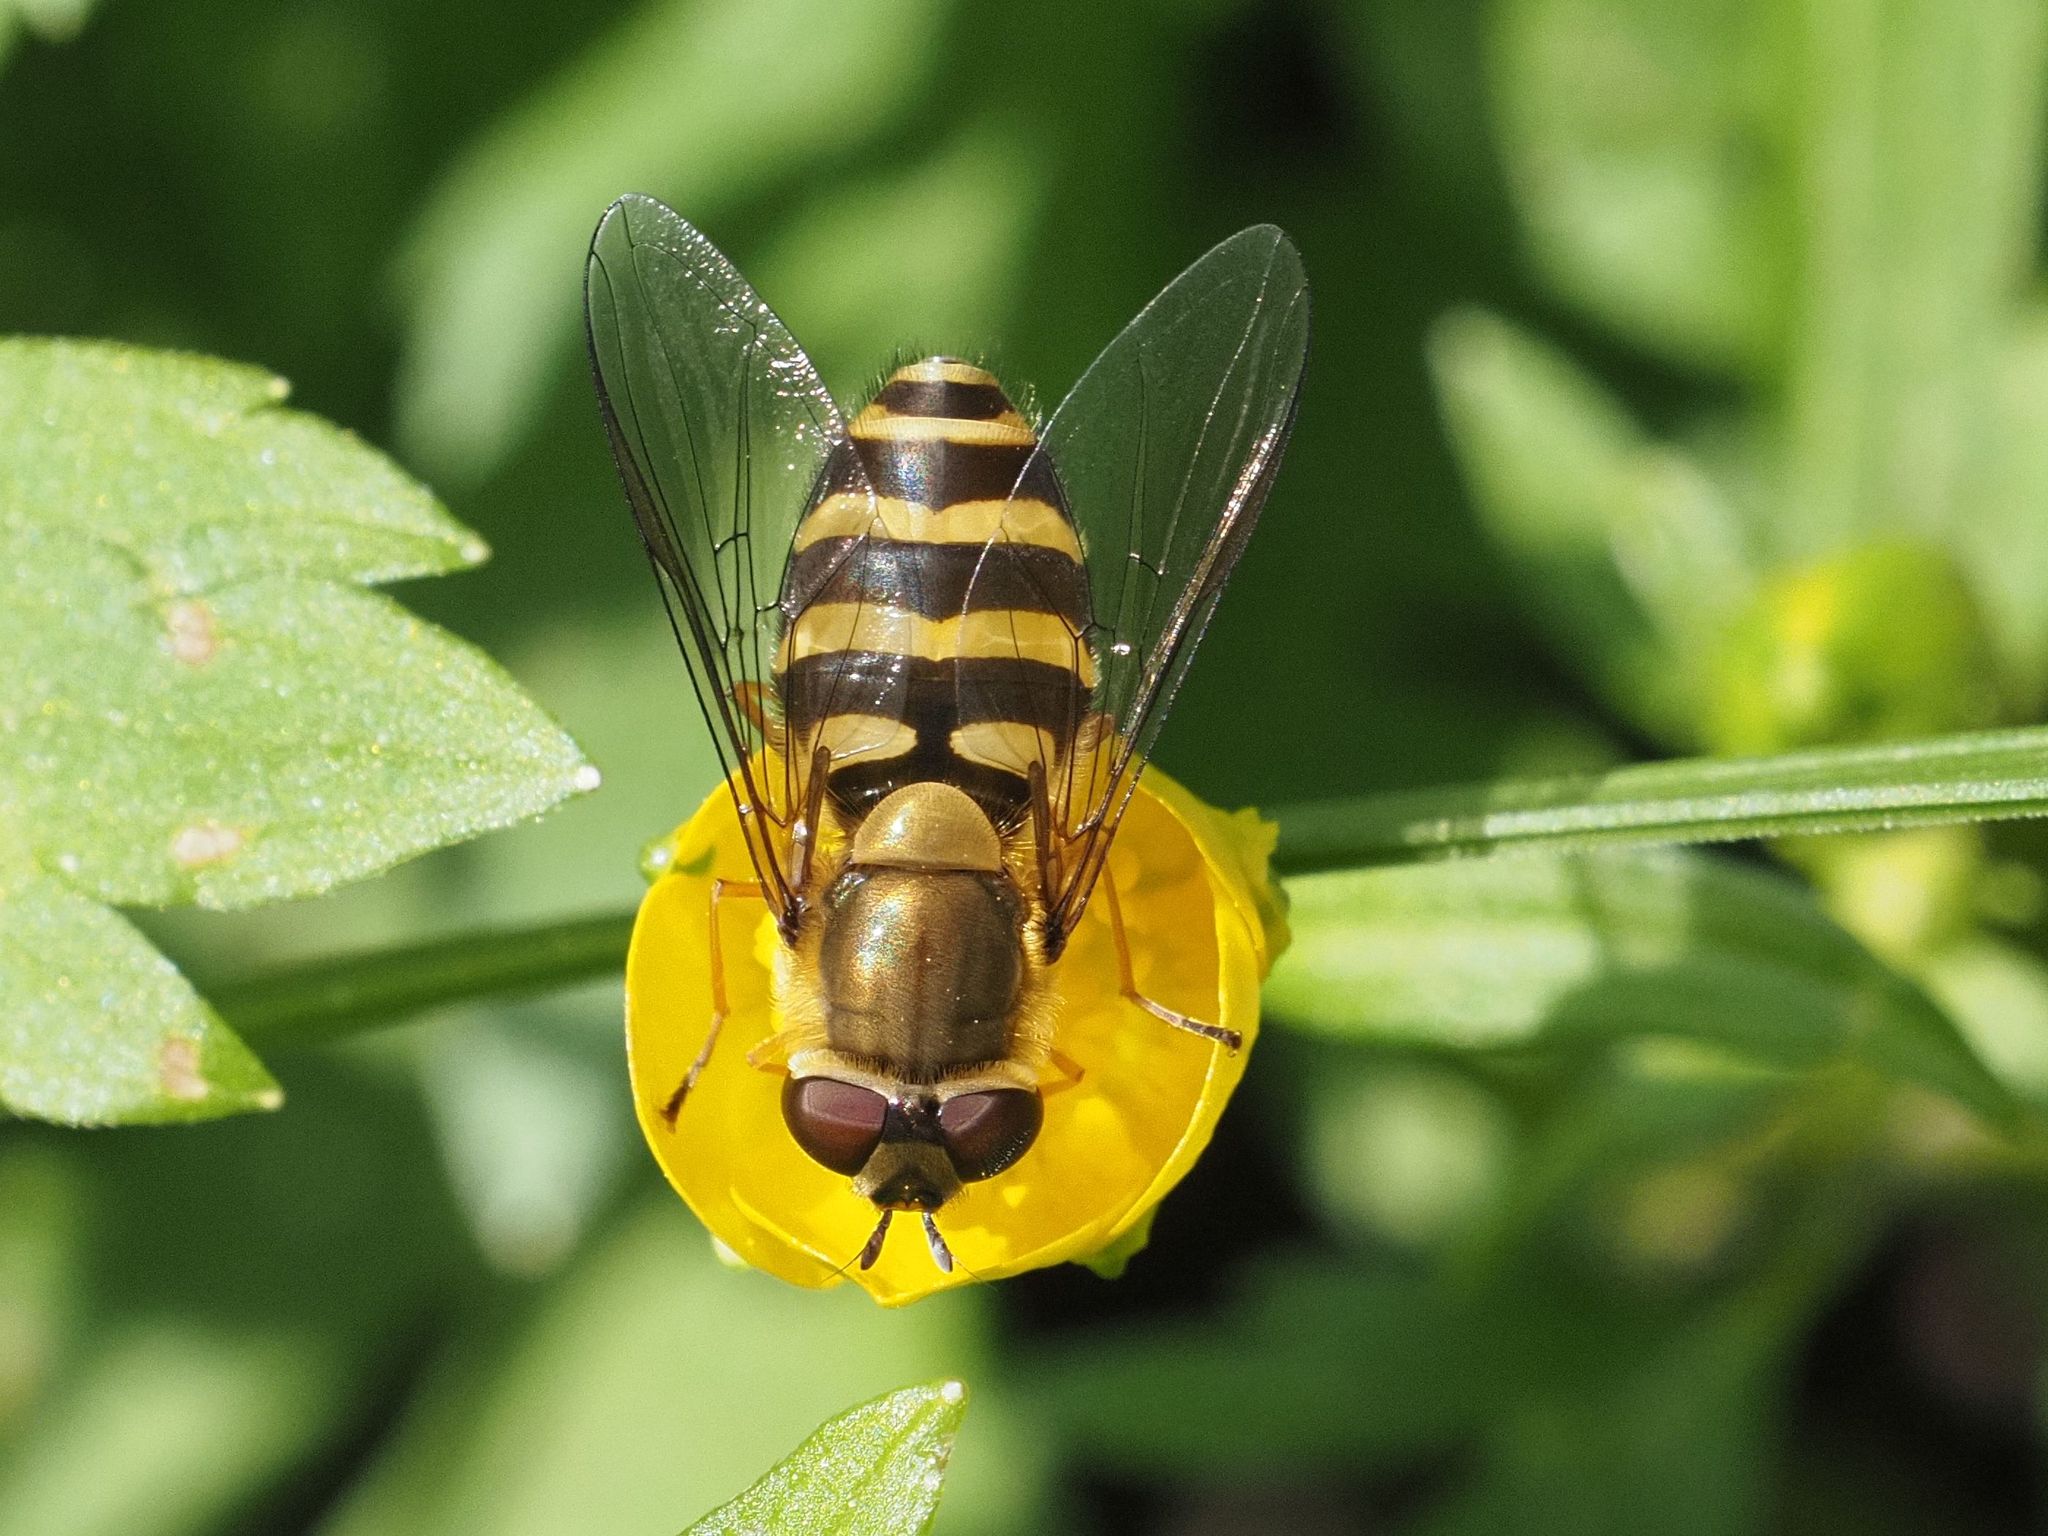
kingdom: Animalia
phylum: Arthropoda
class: Insecta
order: Diptera
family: Syrphidae
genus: Syrphus
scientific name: Syrphus torvus
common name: Hairy-eyed flower fly
